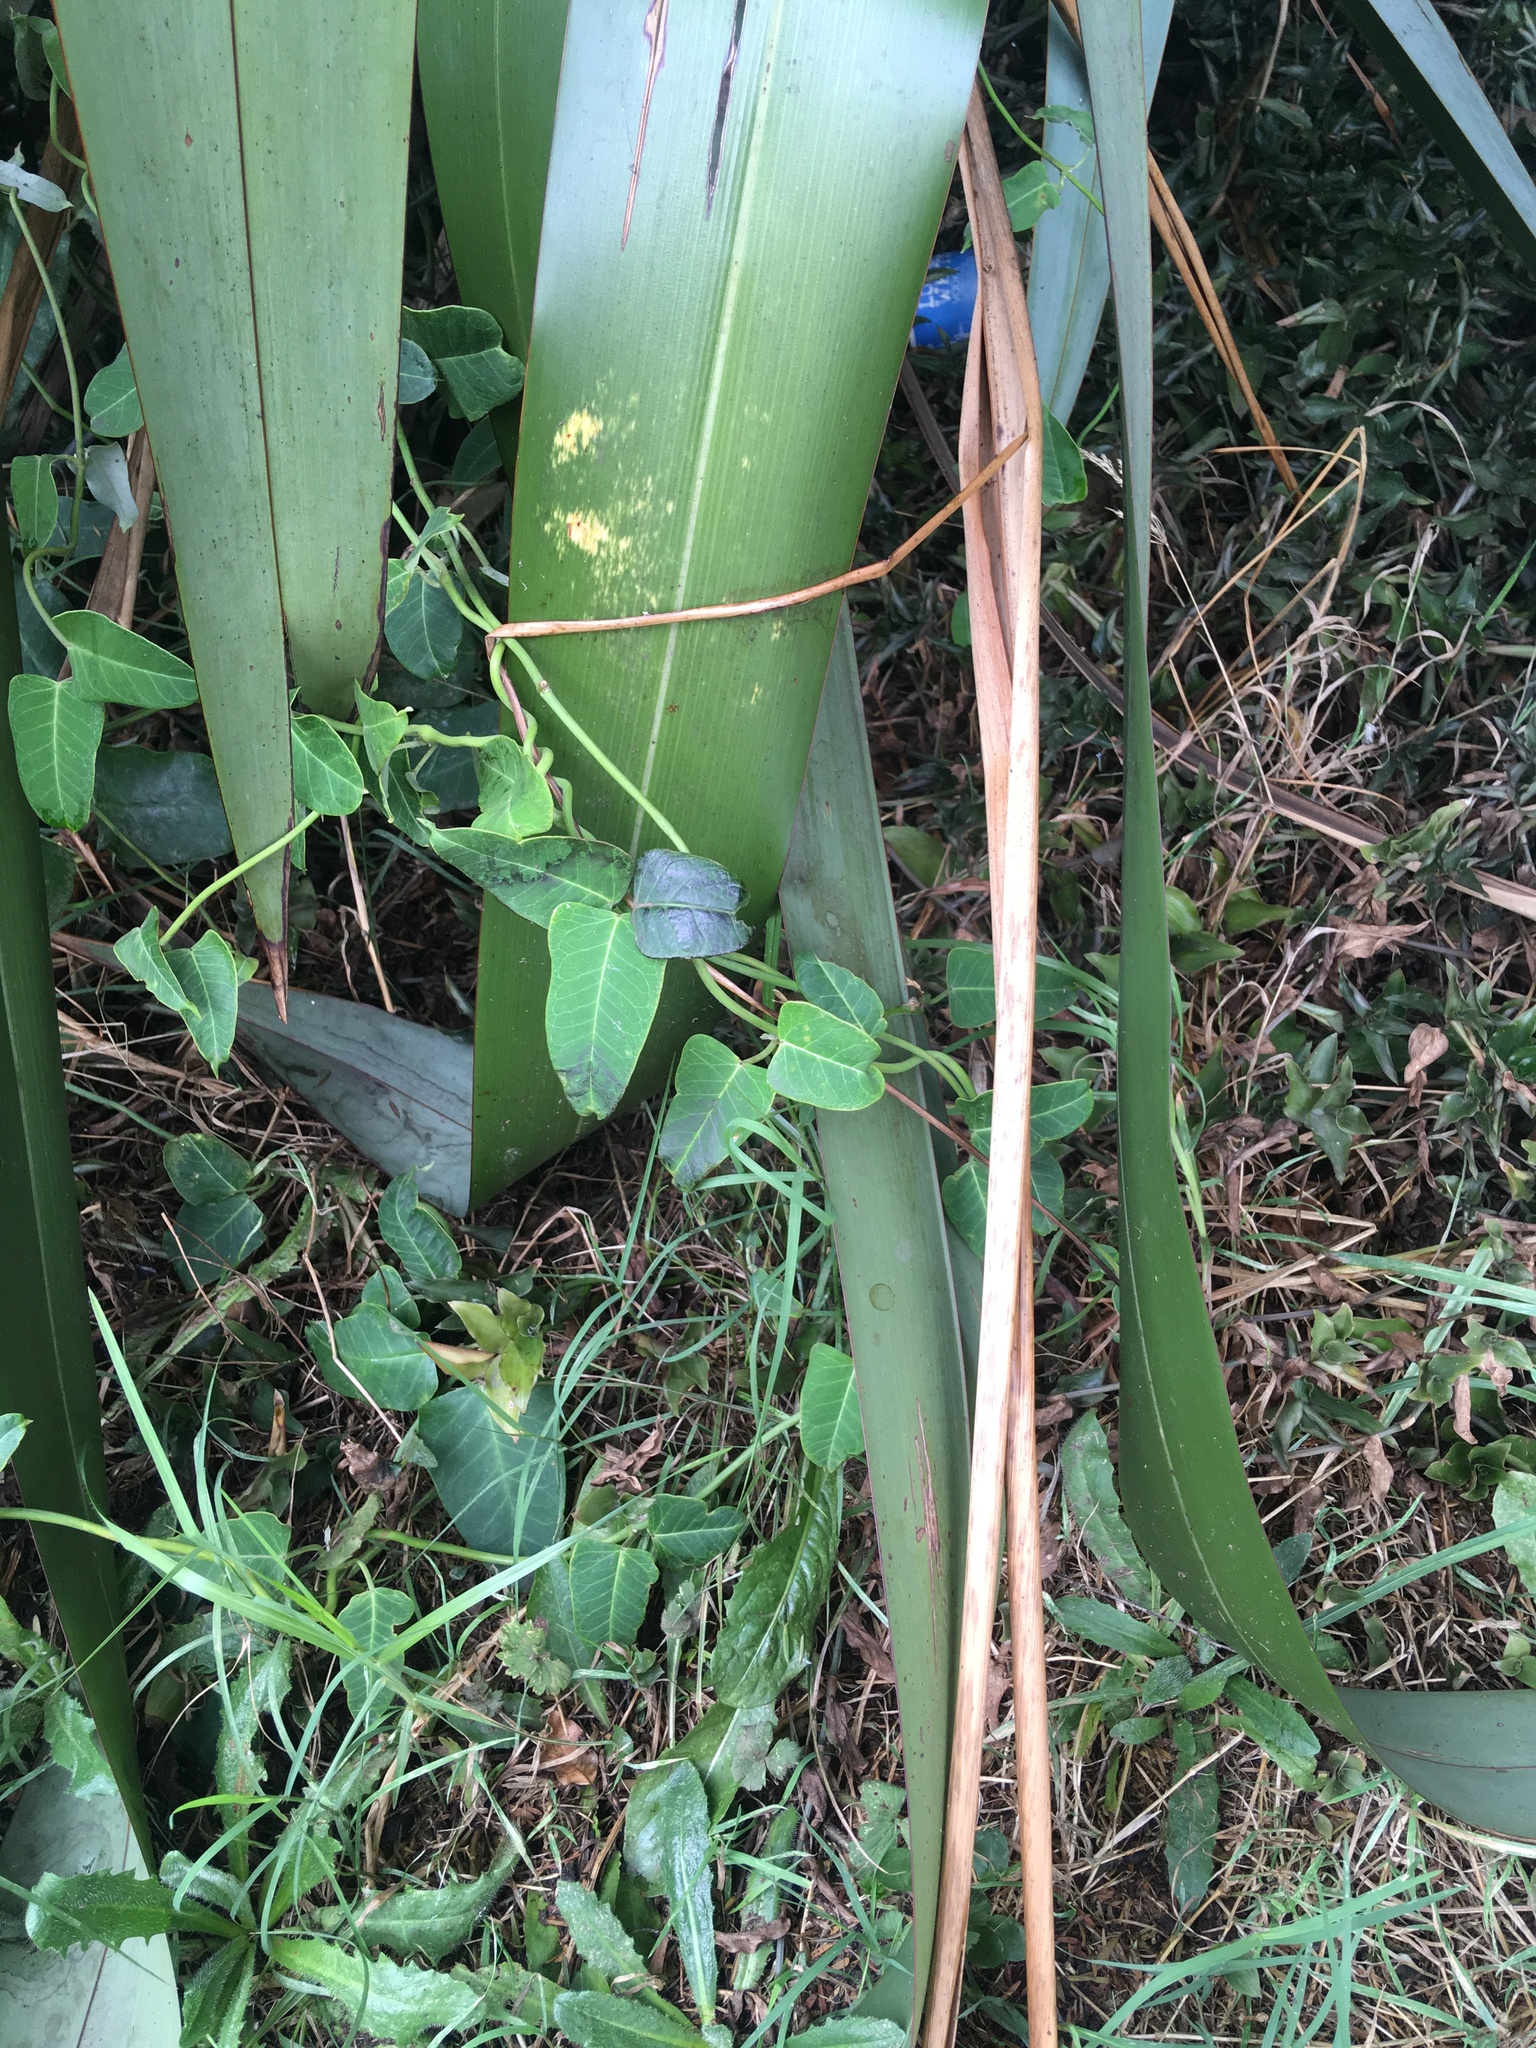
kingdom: Plantae
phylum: Tracheophyta
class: Magnoliopsida
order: Gentianales
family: Apocynaceae
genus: Araujia
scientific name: Araujia sericifera
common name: White bladderflower
